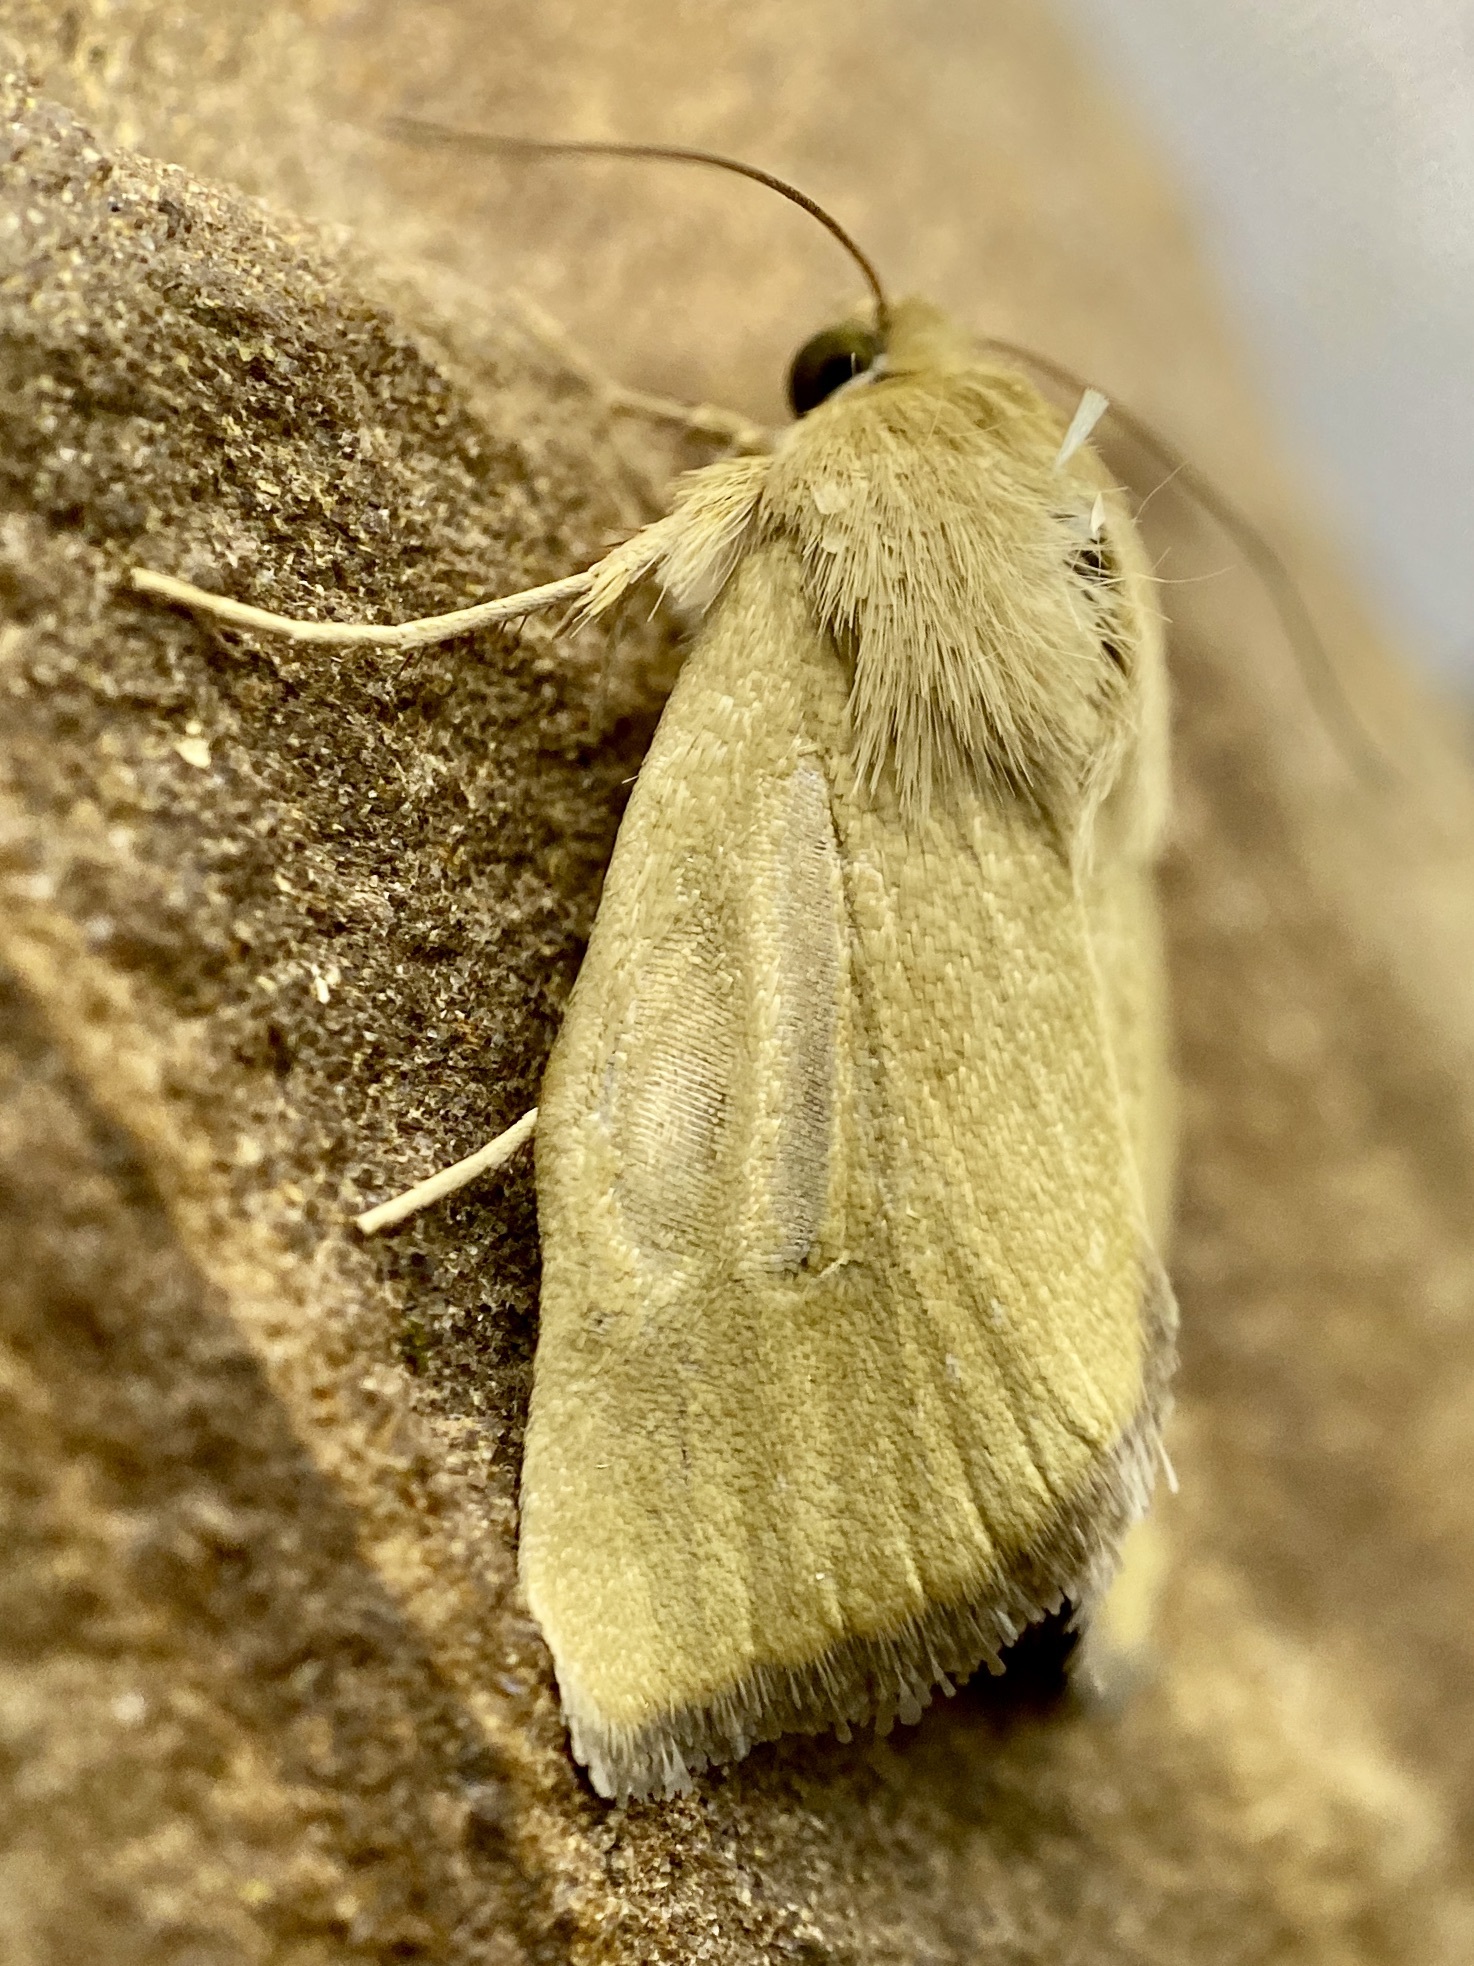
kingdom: Animalia
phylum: Arthropoda
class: Insecta
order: Lepidoptera
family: Noctuidae
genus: Heliocheilus
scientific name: Heliocheilus paradoxus
